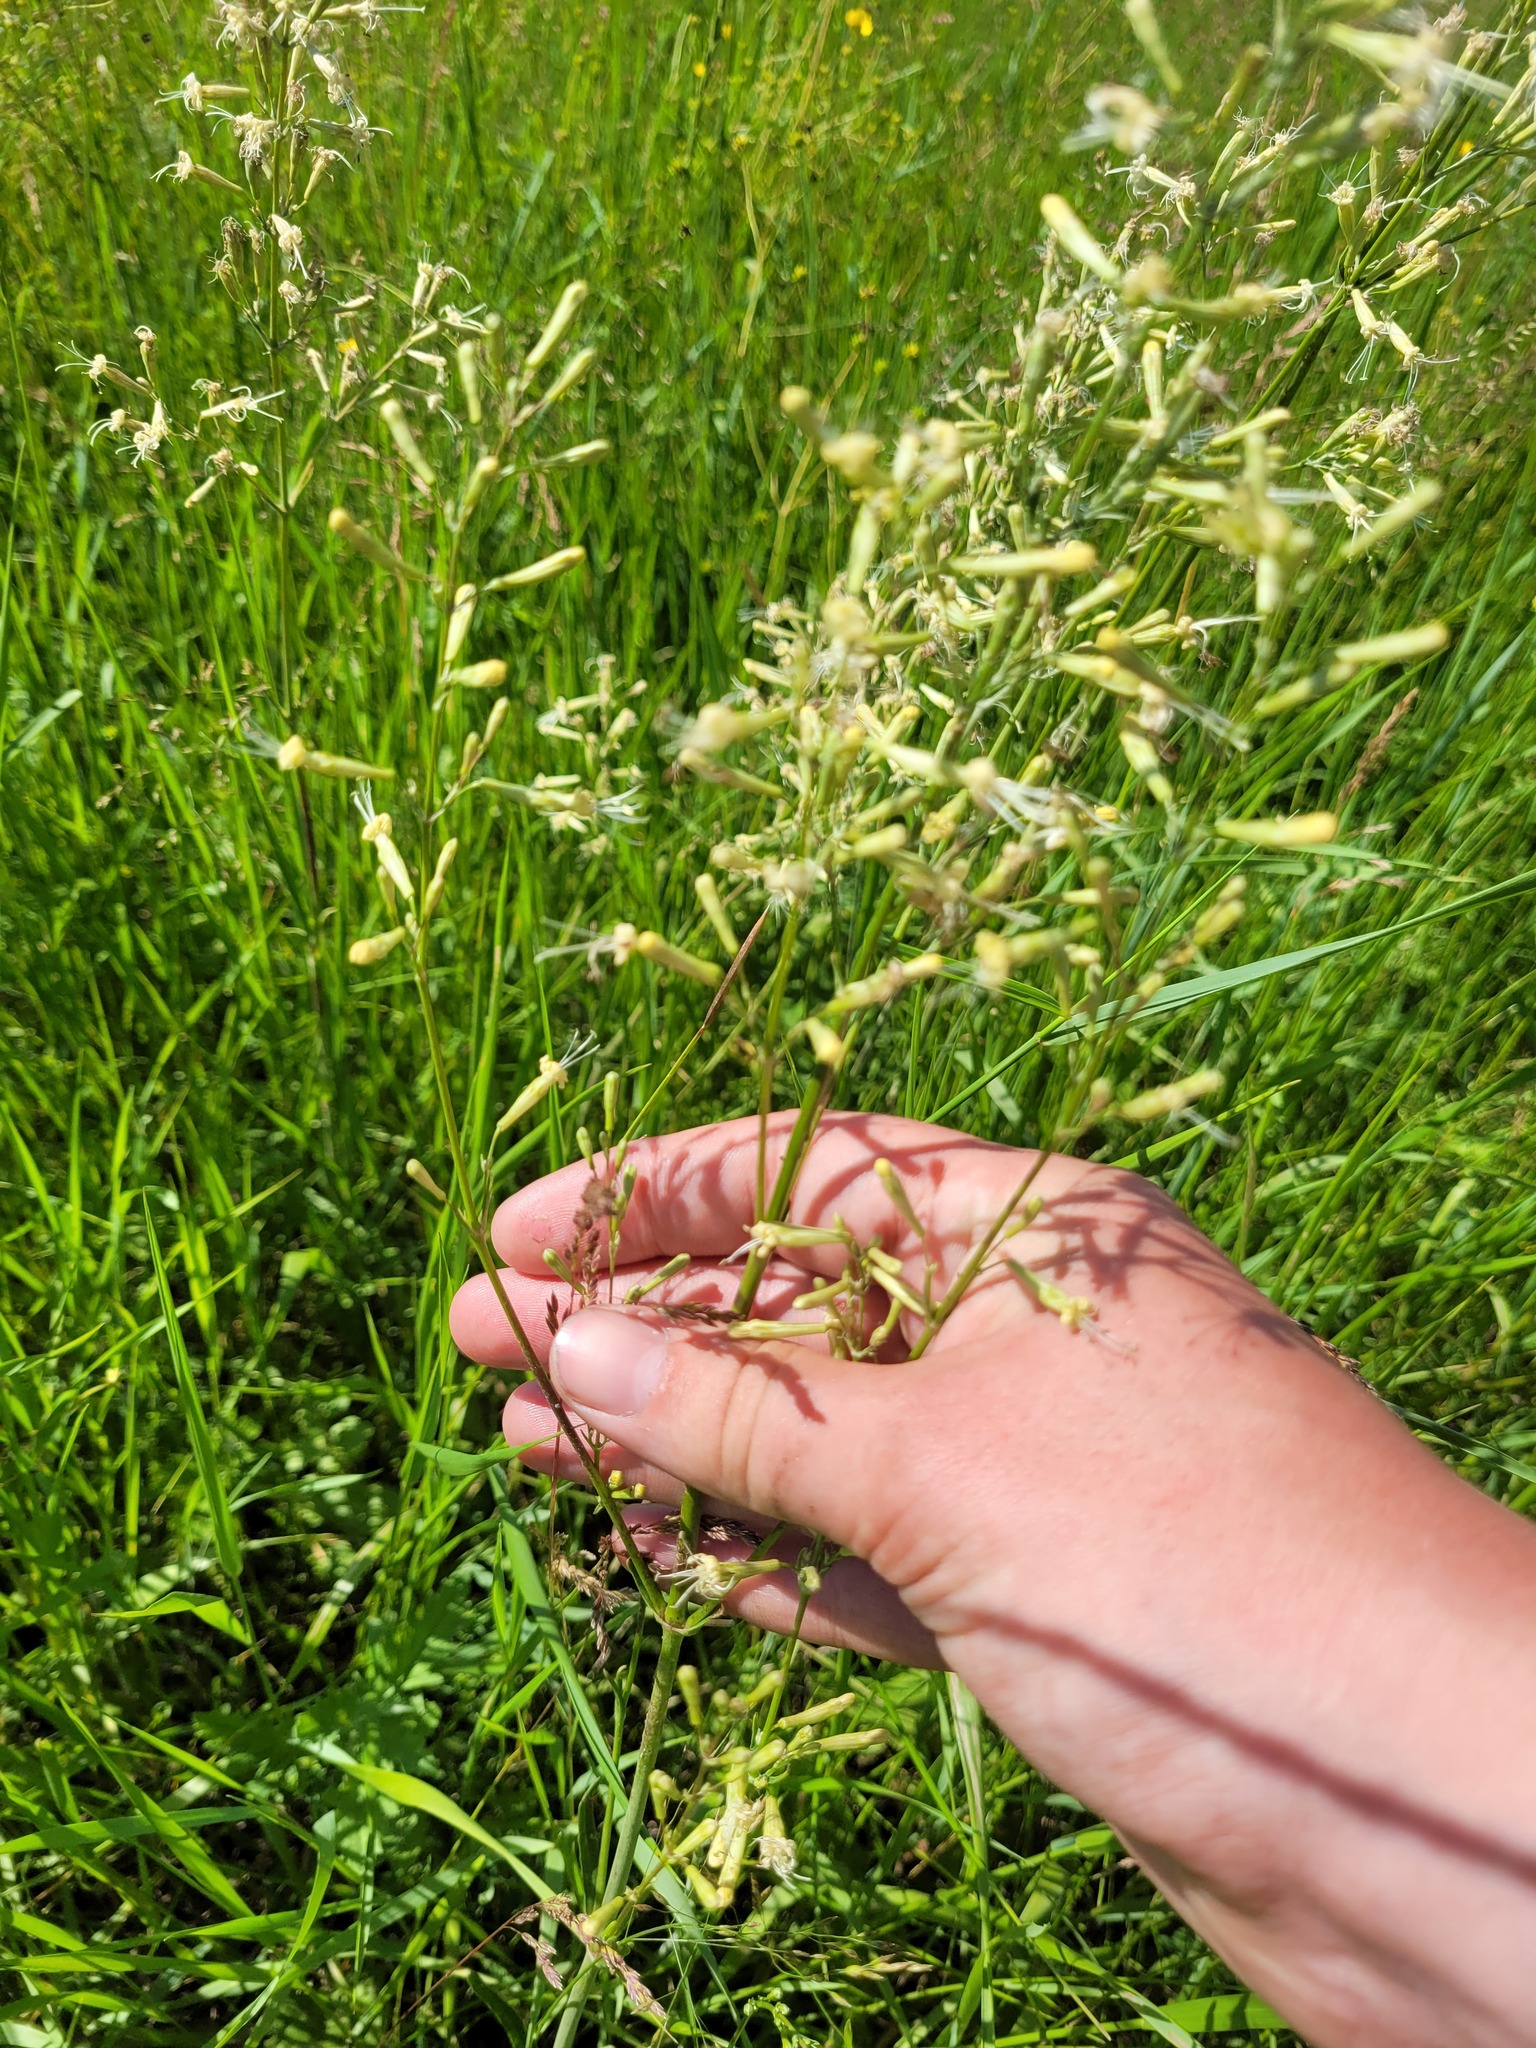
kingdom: Plantae
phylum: Tracheophyta
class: Magnoliopsida
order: Caryophyllales
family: Caryophyllaceae
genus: Silene
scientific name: Silene multiflora
